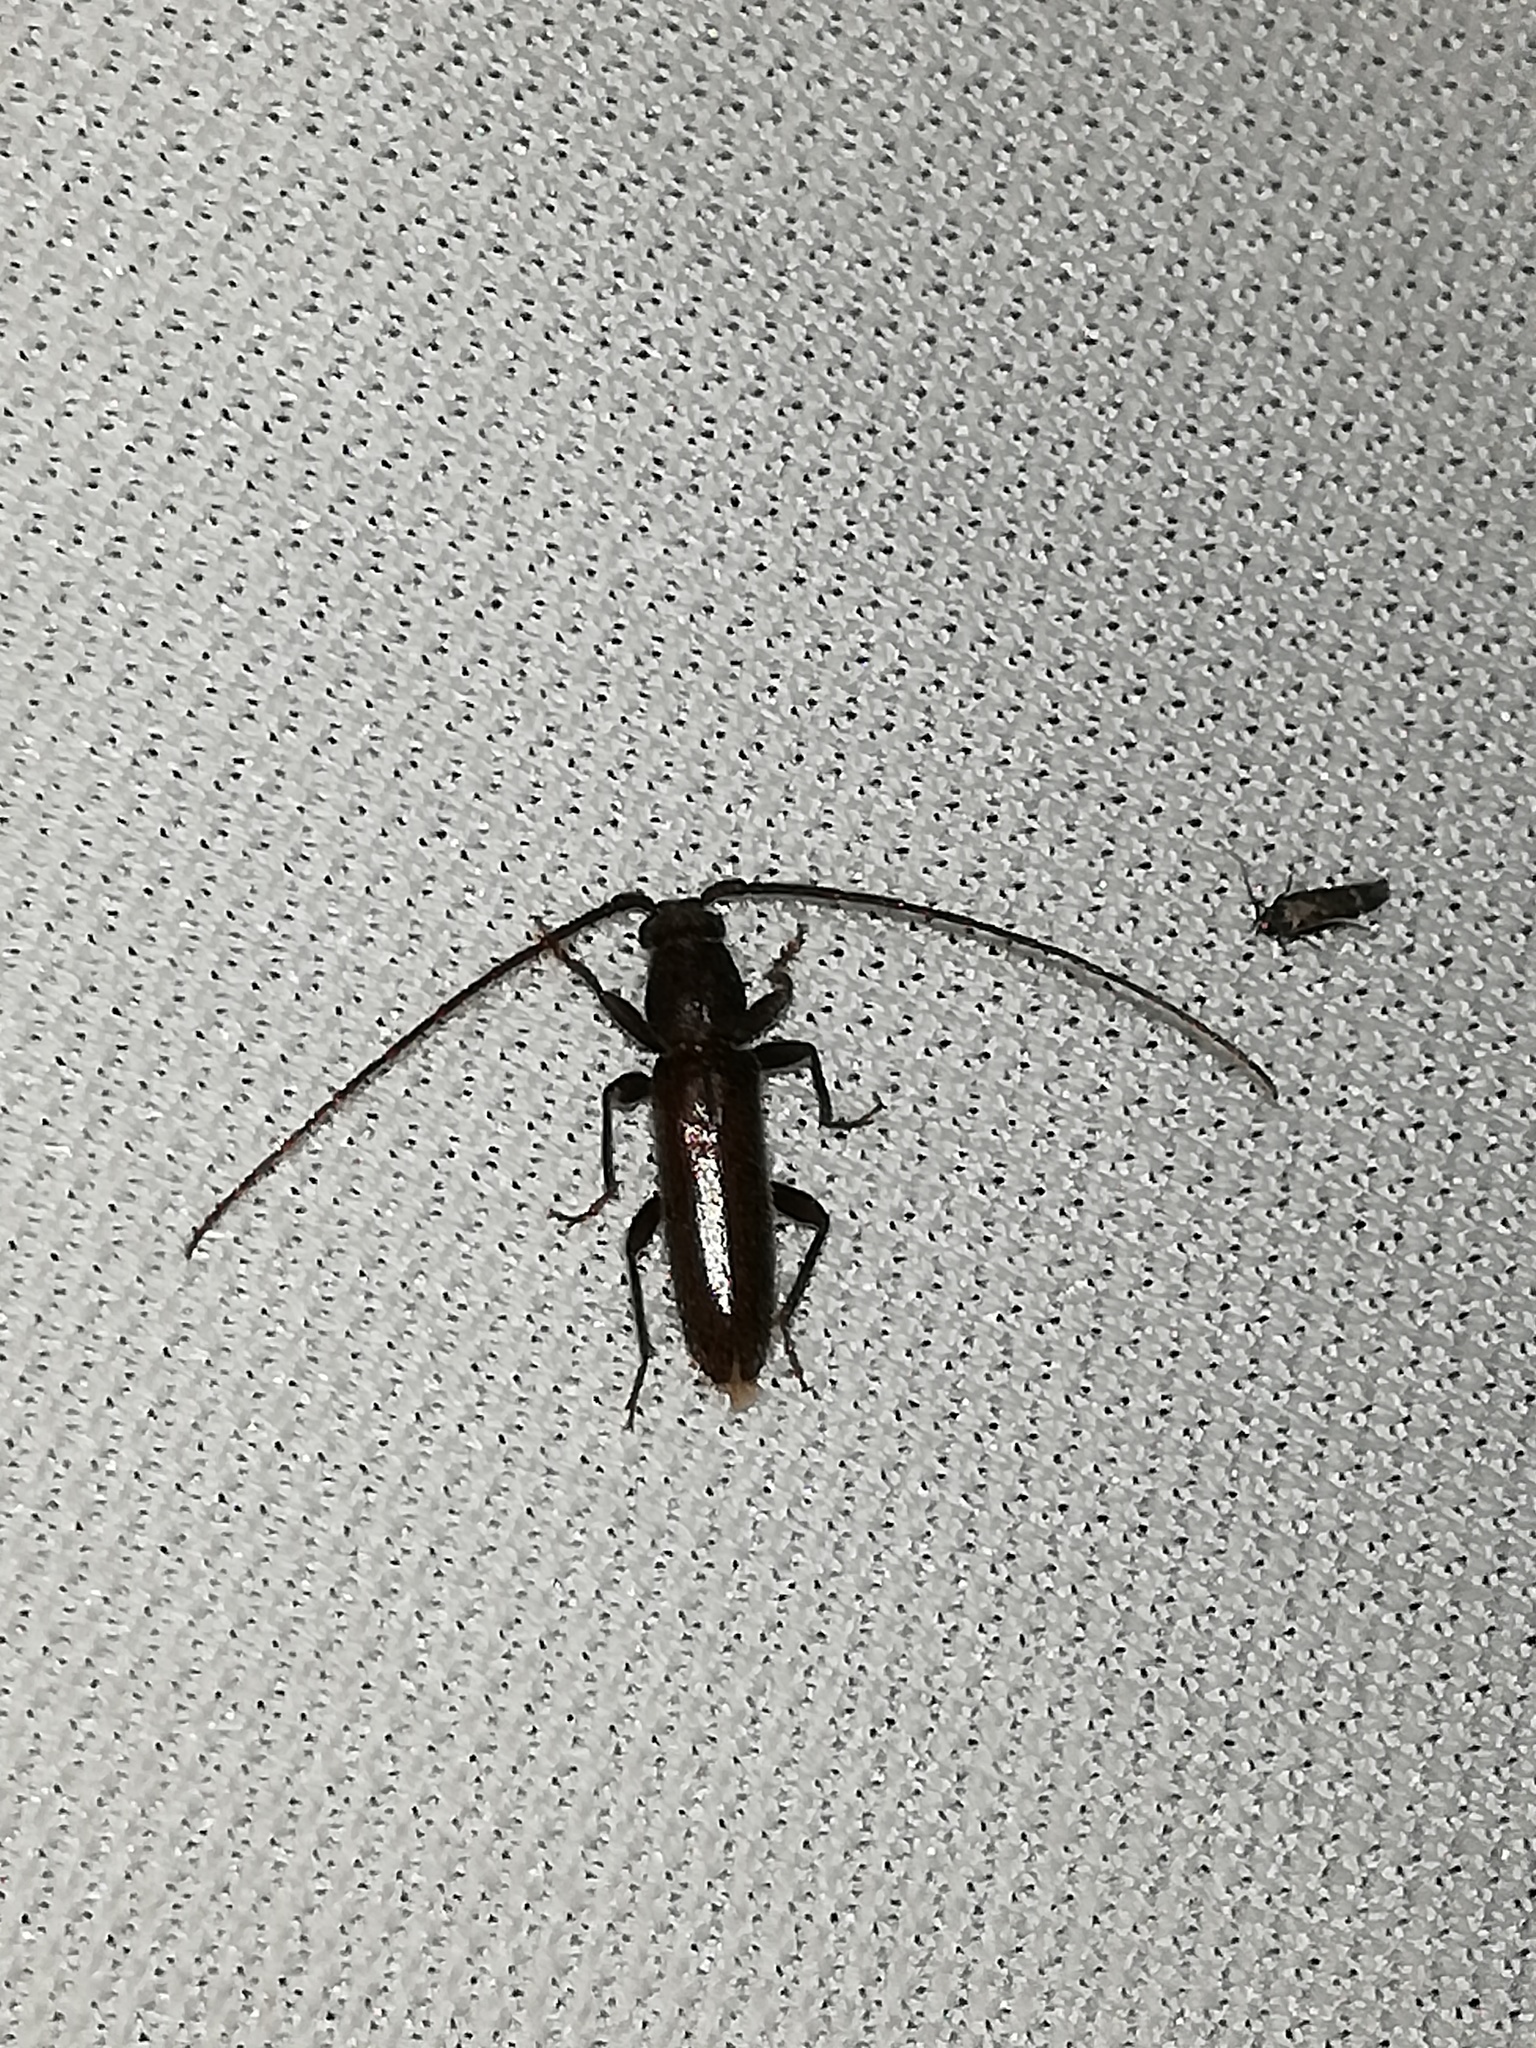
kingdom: Animalia
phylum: Arthropoda
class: Insecta
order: Coleoptera
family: Cerambycidae
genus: Geropa
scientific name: Geropa concolor
